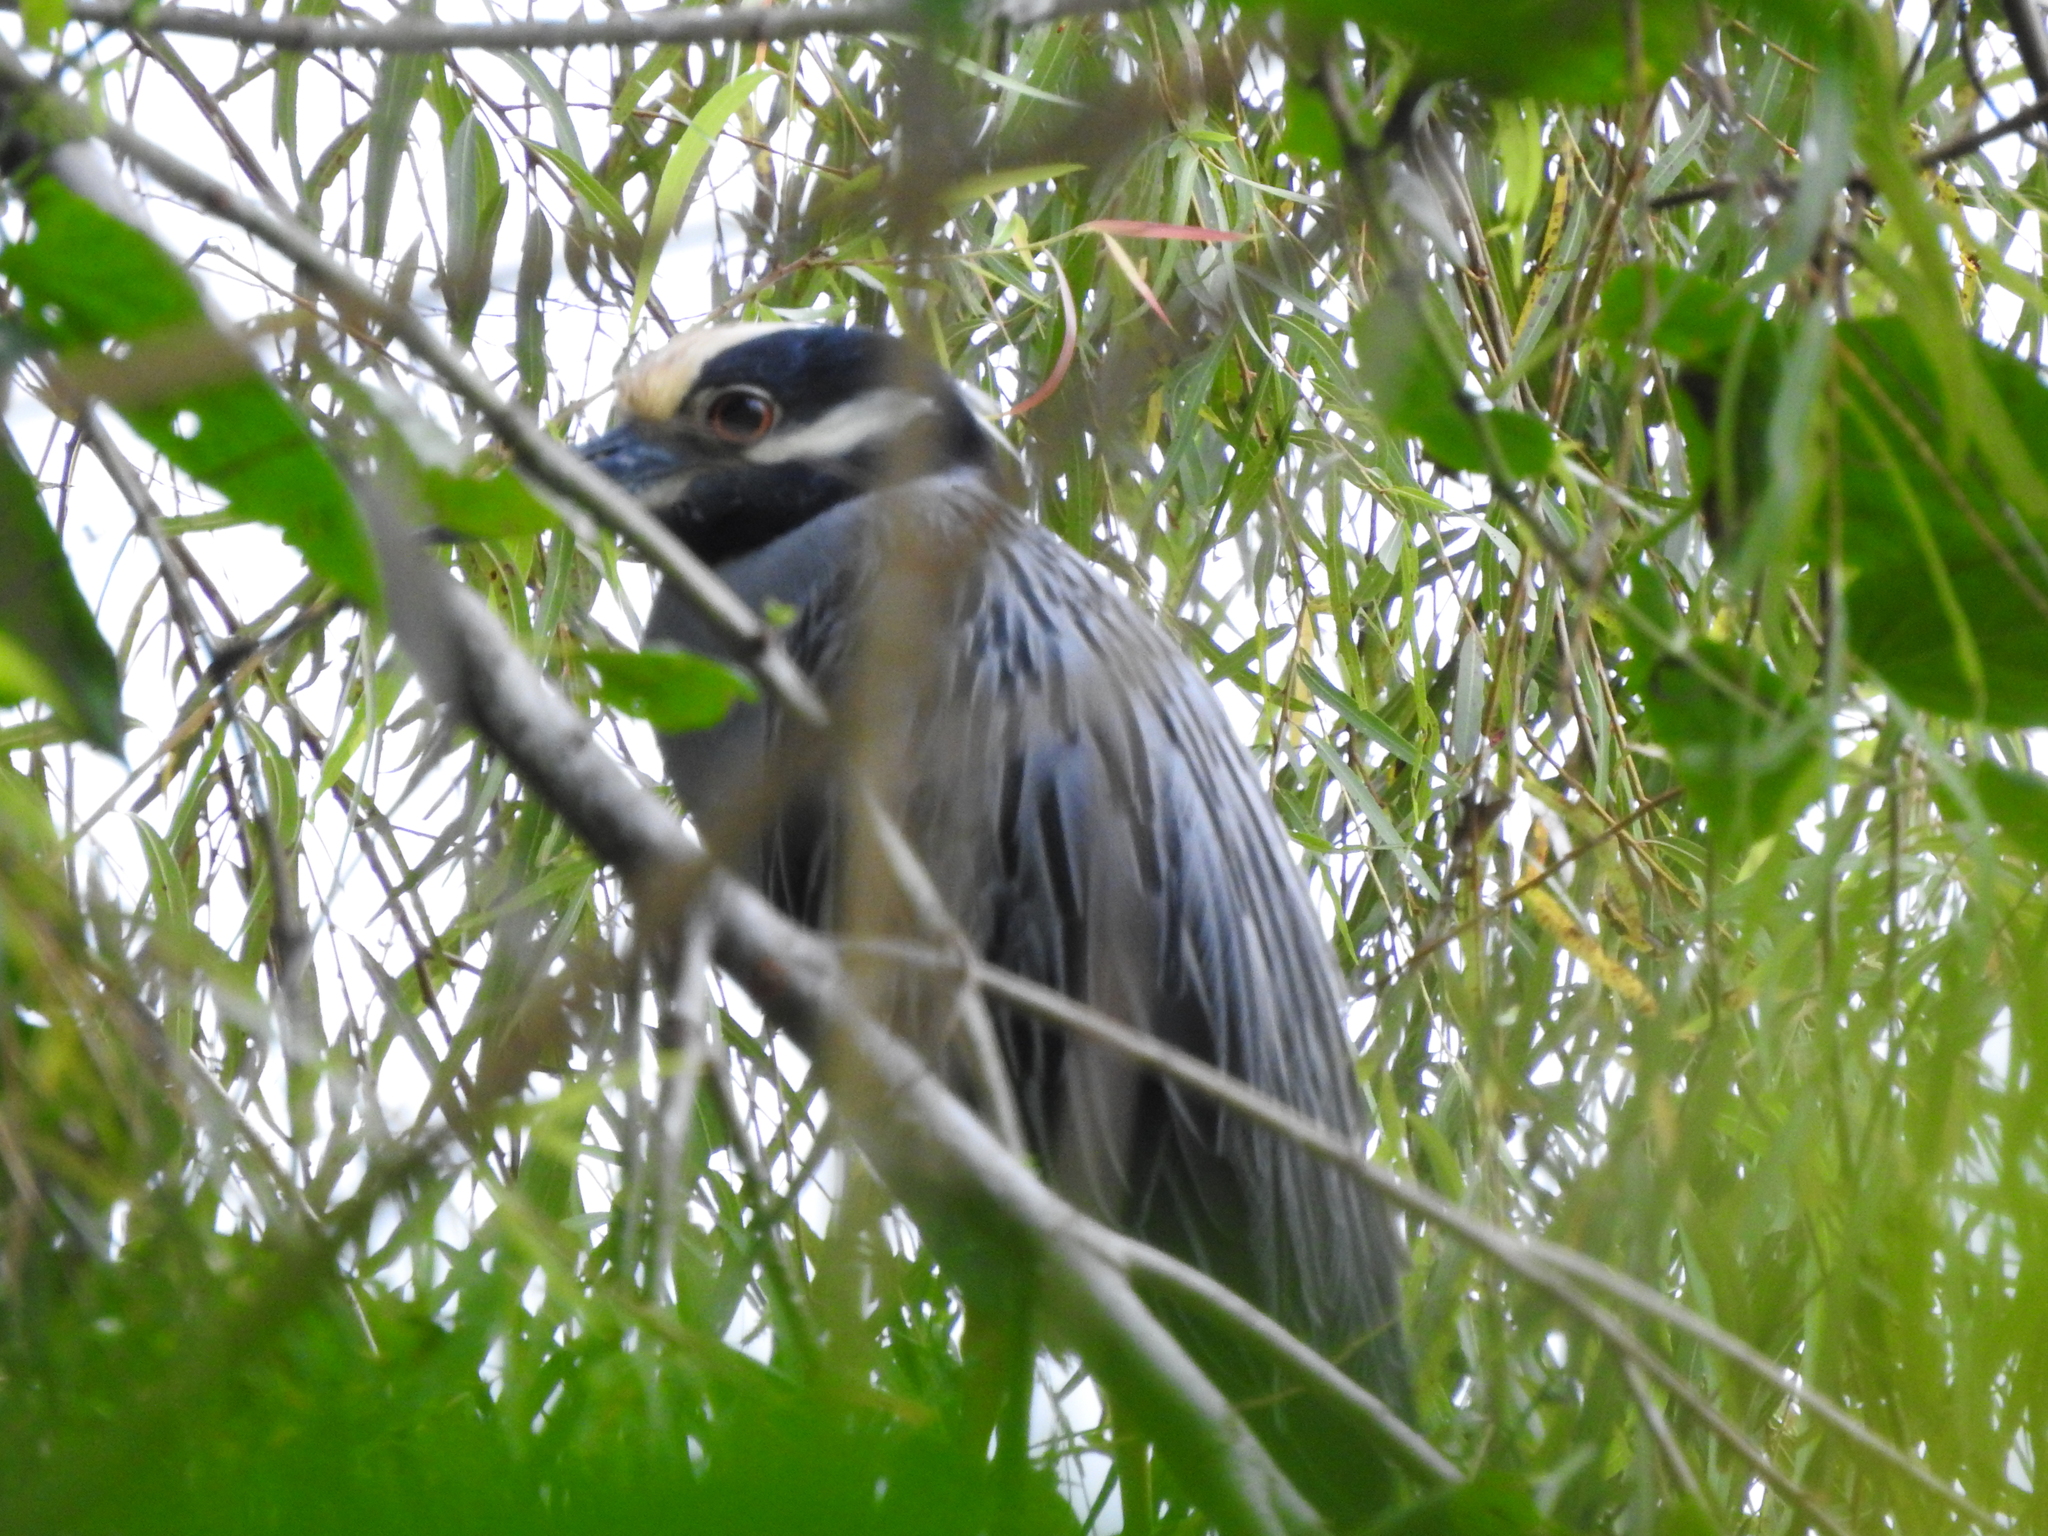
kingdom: Animalia
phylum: Chordata
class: Aves
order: Pelecaniformes
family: Ardeidae
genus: Nyctanassa
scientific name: Nyctanassa violacea
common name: Yellow-crowned night heron
